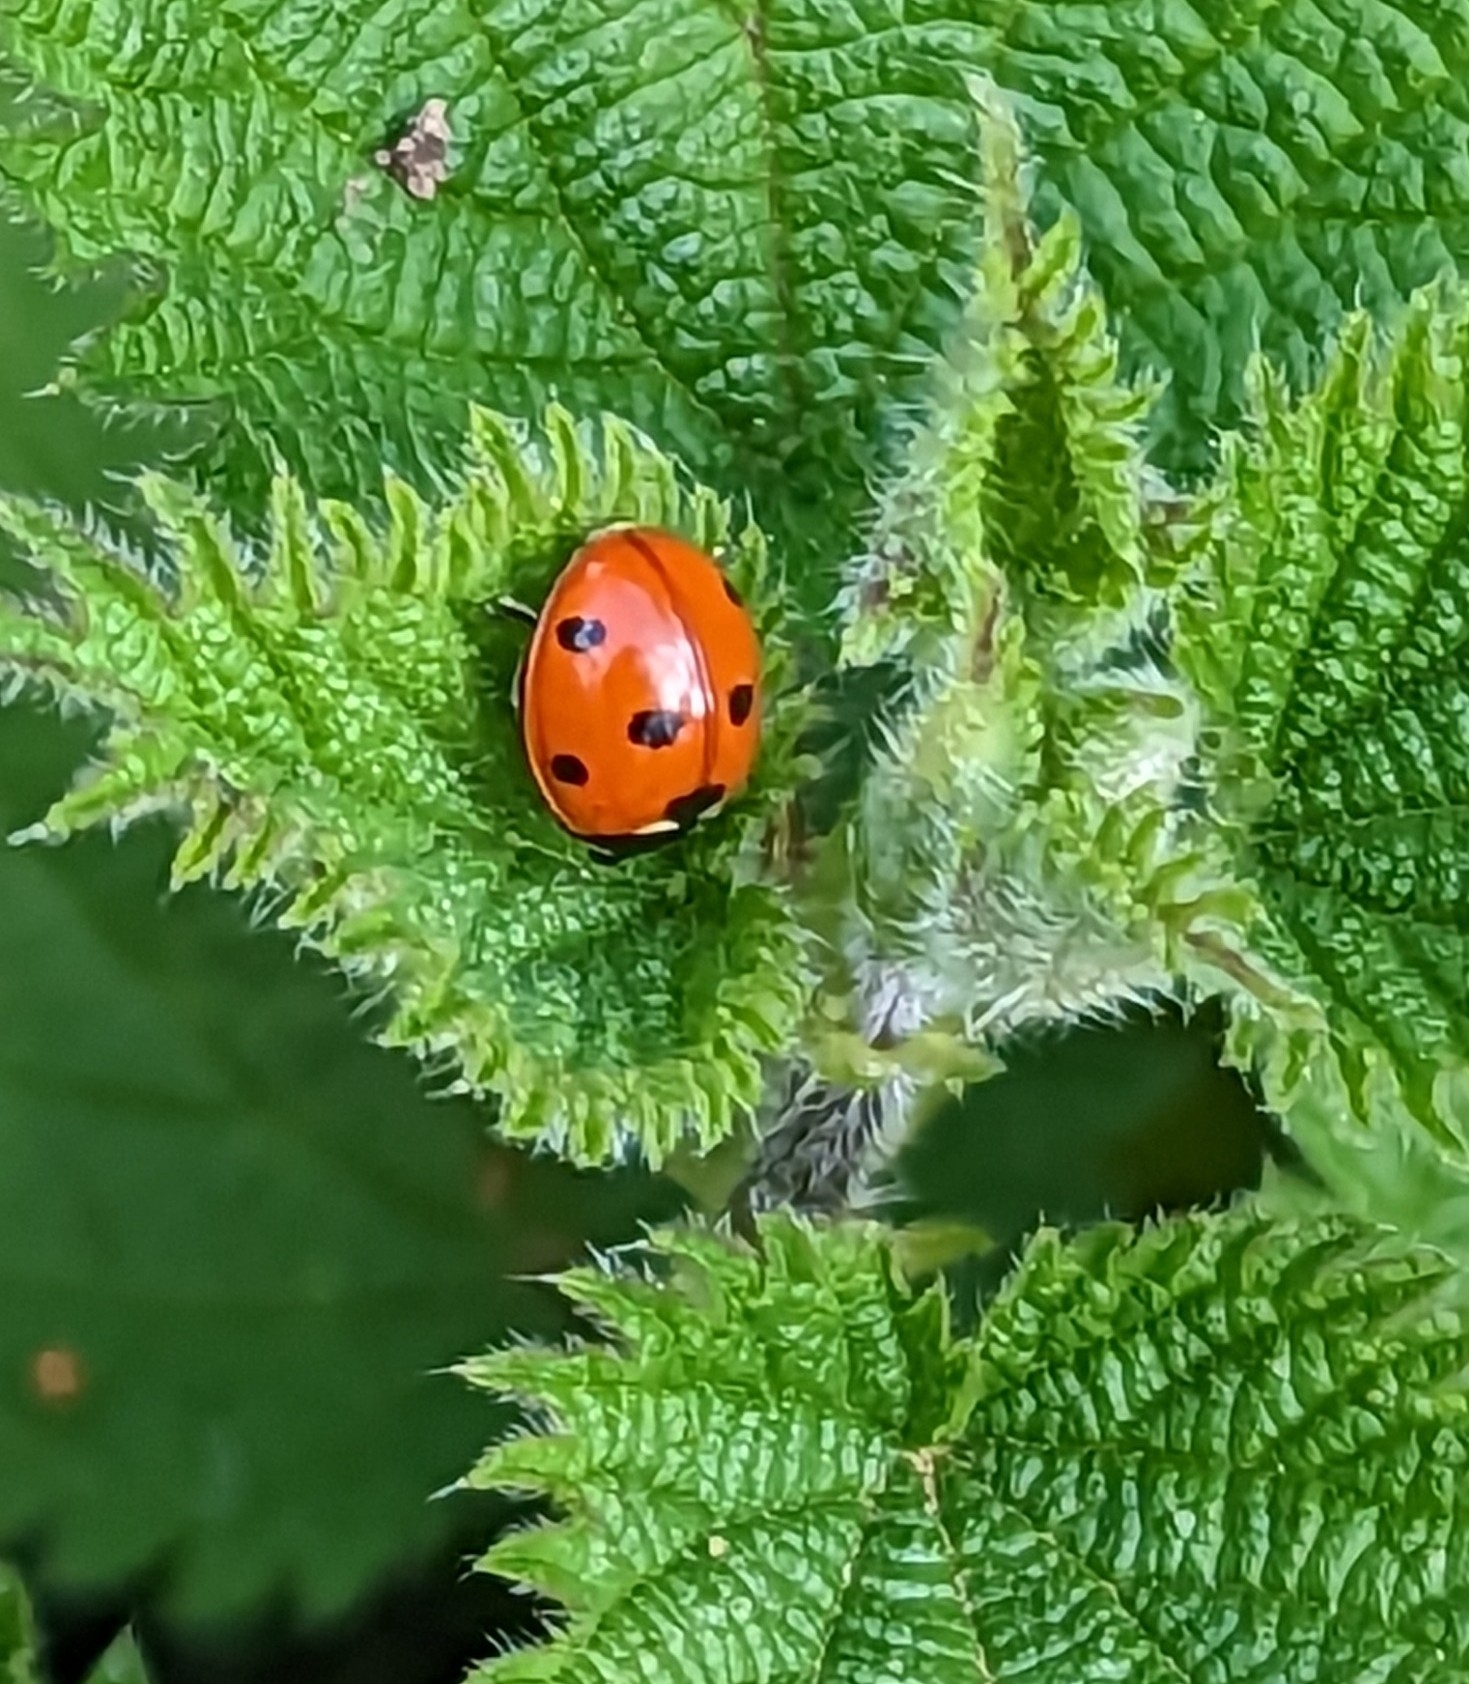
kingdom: Animalia
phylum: Arthropoda
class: Insecta
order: Coleoptera
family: Coccinellidae
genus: Coccinella
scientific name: Coccinella septempunctata
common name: Sevenspotted lady beetle
